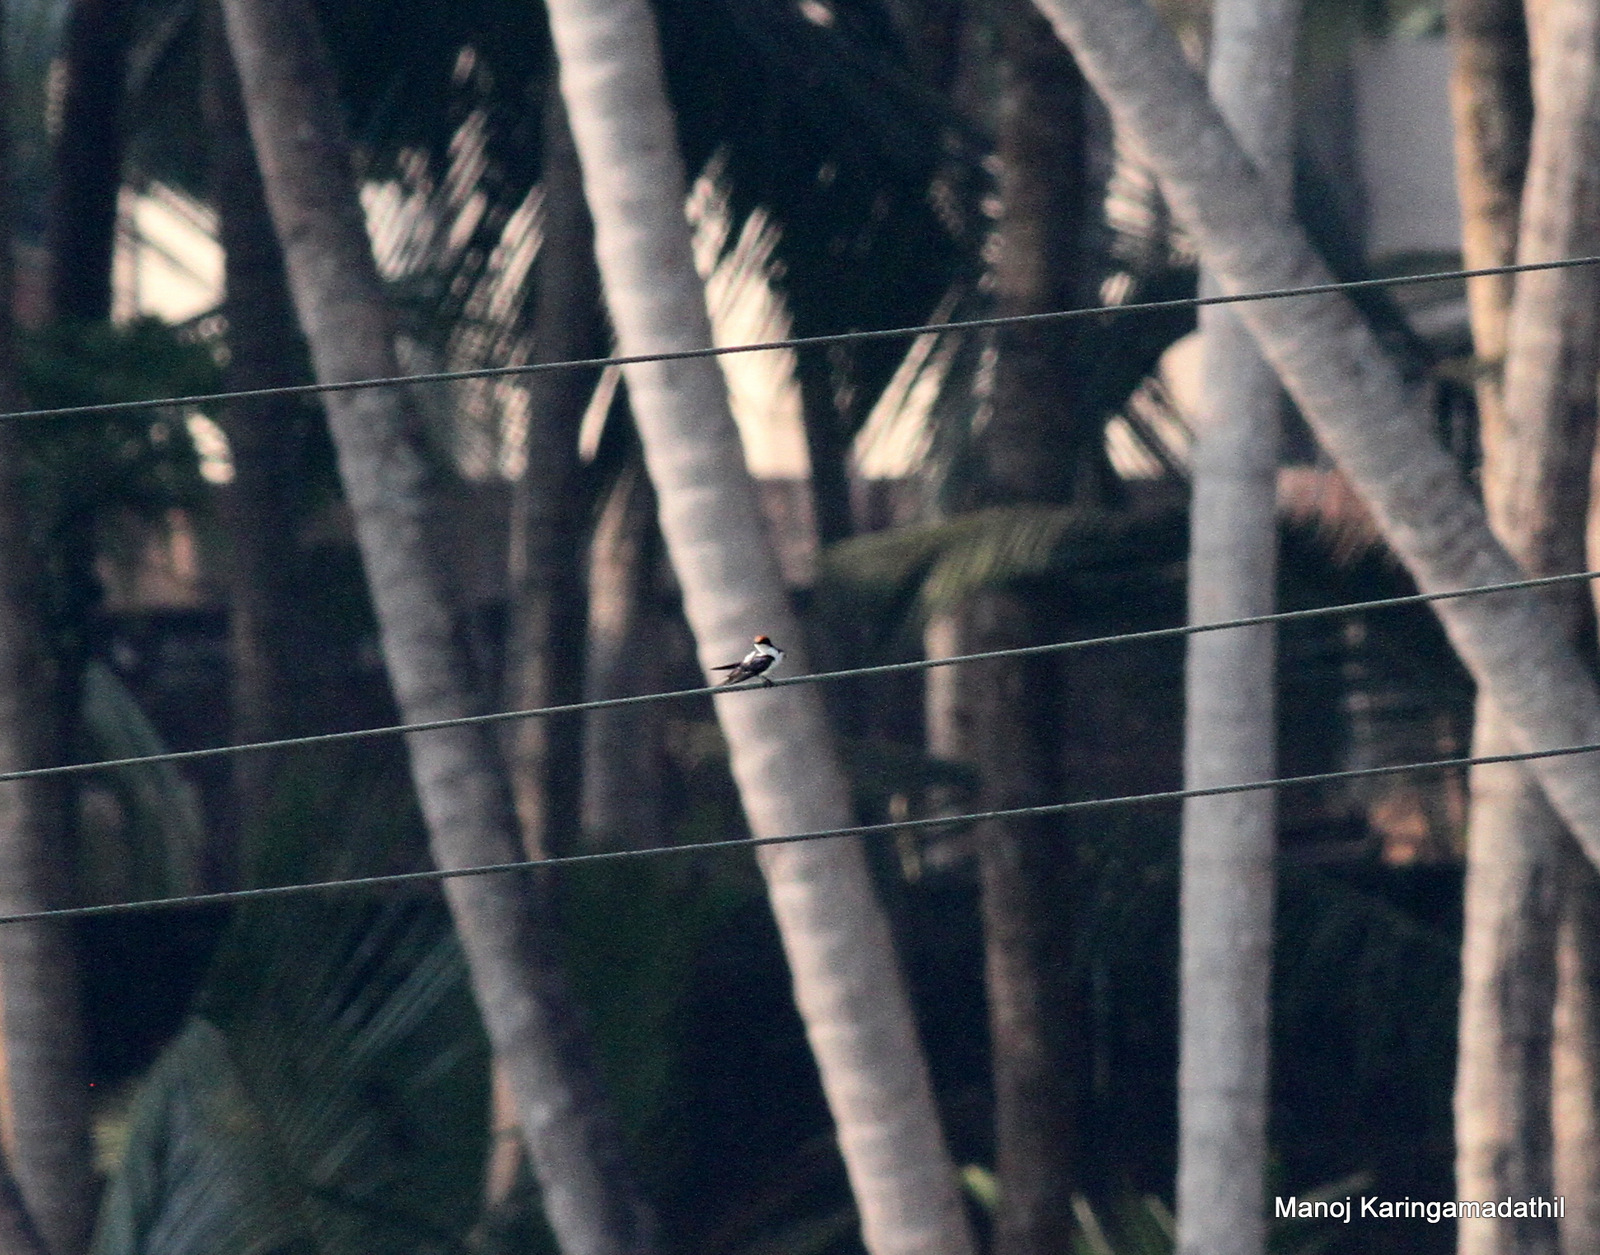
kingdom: Animalia
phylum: Chordata
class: Aves
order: Passeriformes
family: Hirundinidae
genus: Hirundo
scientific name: Hirundo smithii
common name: Wire-tailed swallow
